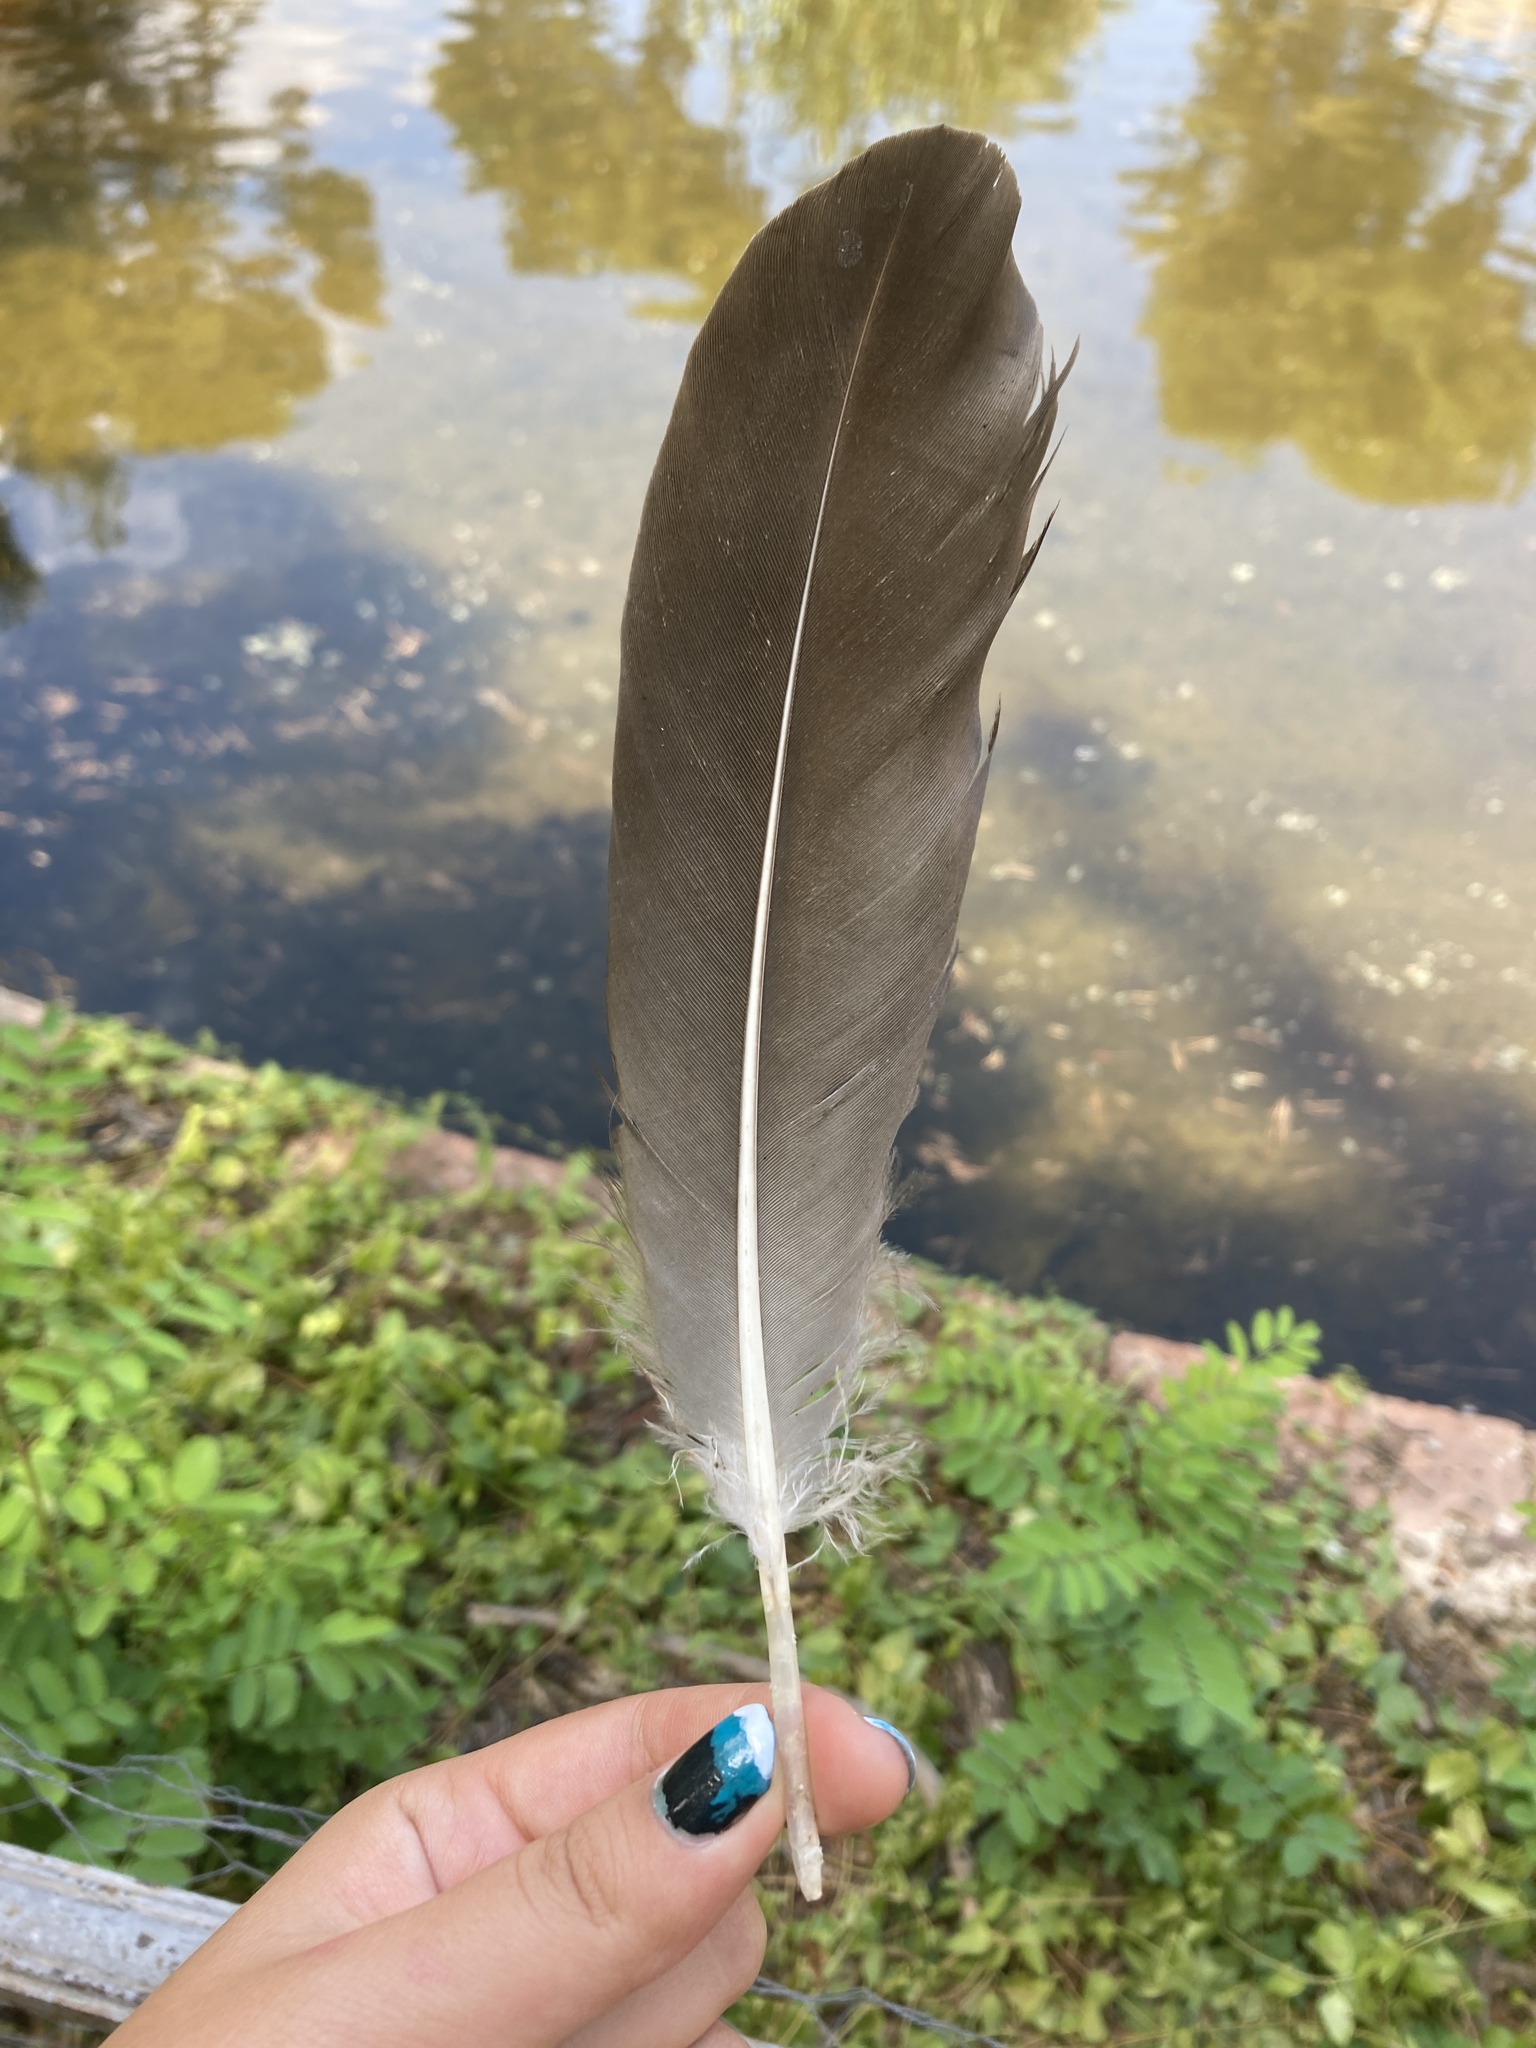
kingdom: Animalia
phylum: Chordata
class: Aves
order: Anseriformes
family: Anatidae
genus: Anser
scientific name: Anser anser
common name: Greylag goose
